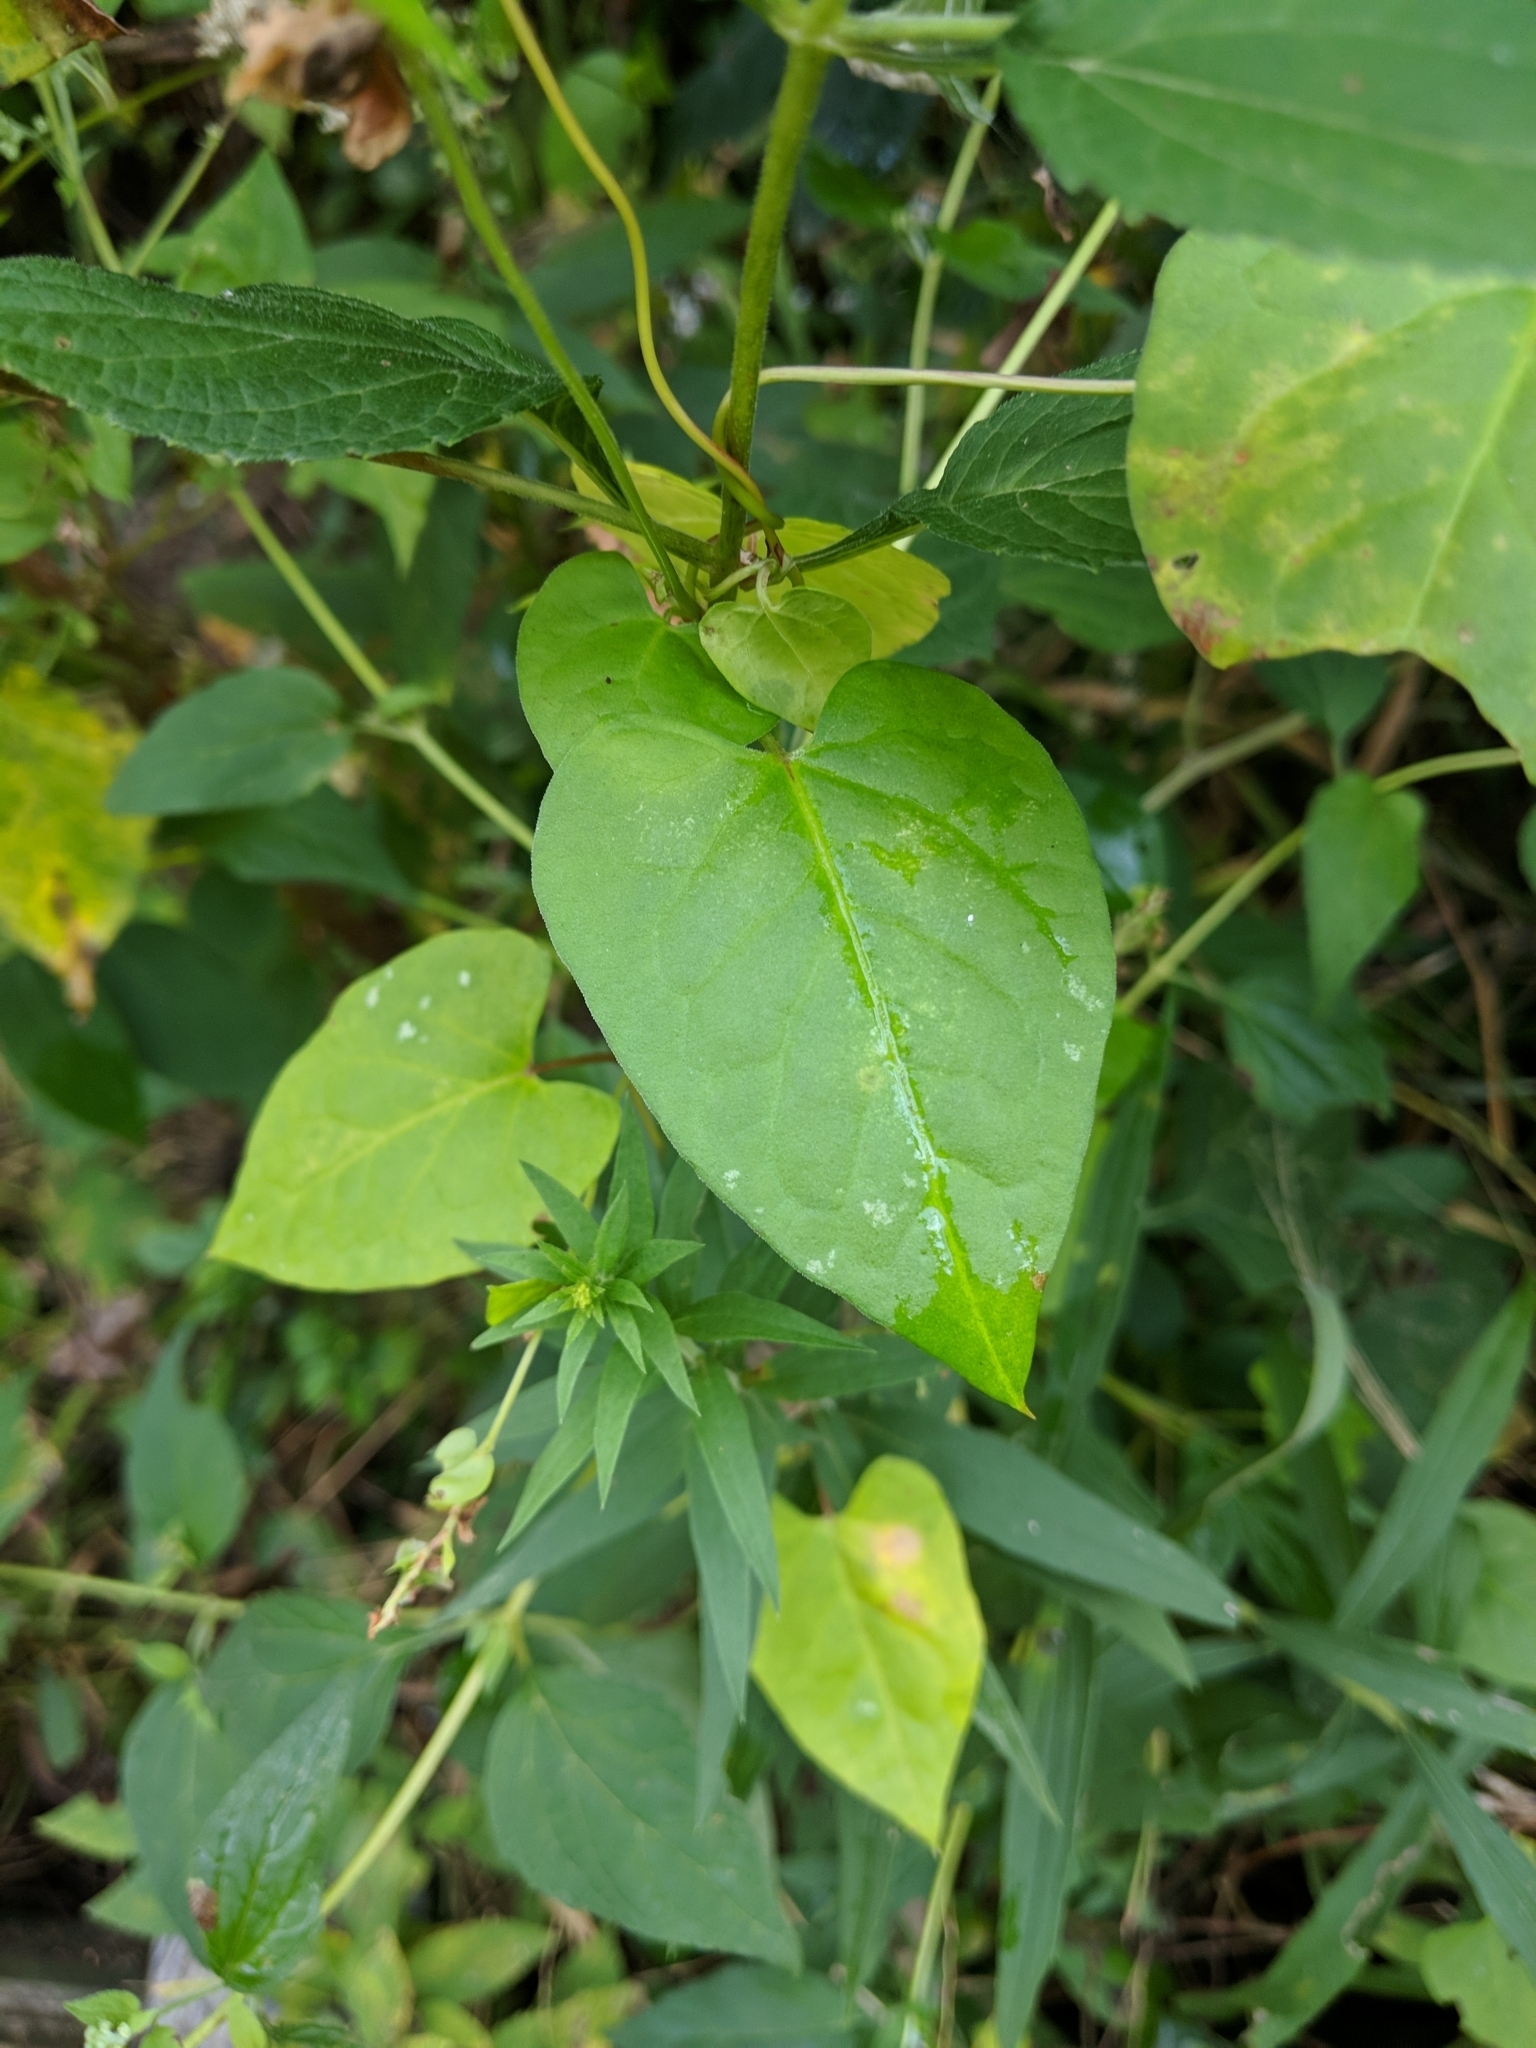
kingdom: Plantae
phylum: Tracheophyta
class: Magnoliopsida
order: Caryophyllales
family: Polygonaceae
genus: Fallopia
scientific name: Fallopia scandens
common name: Climbing false buckwheat
